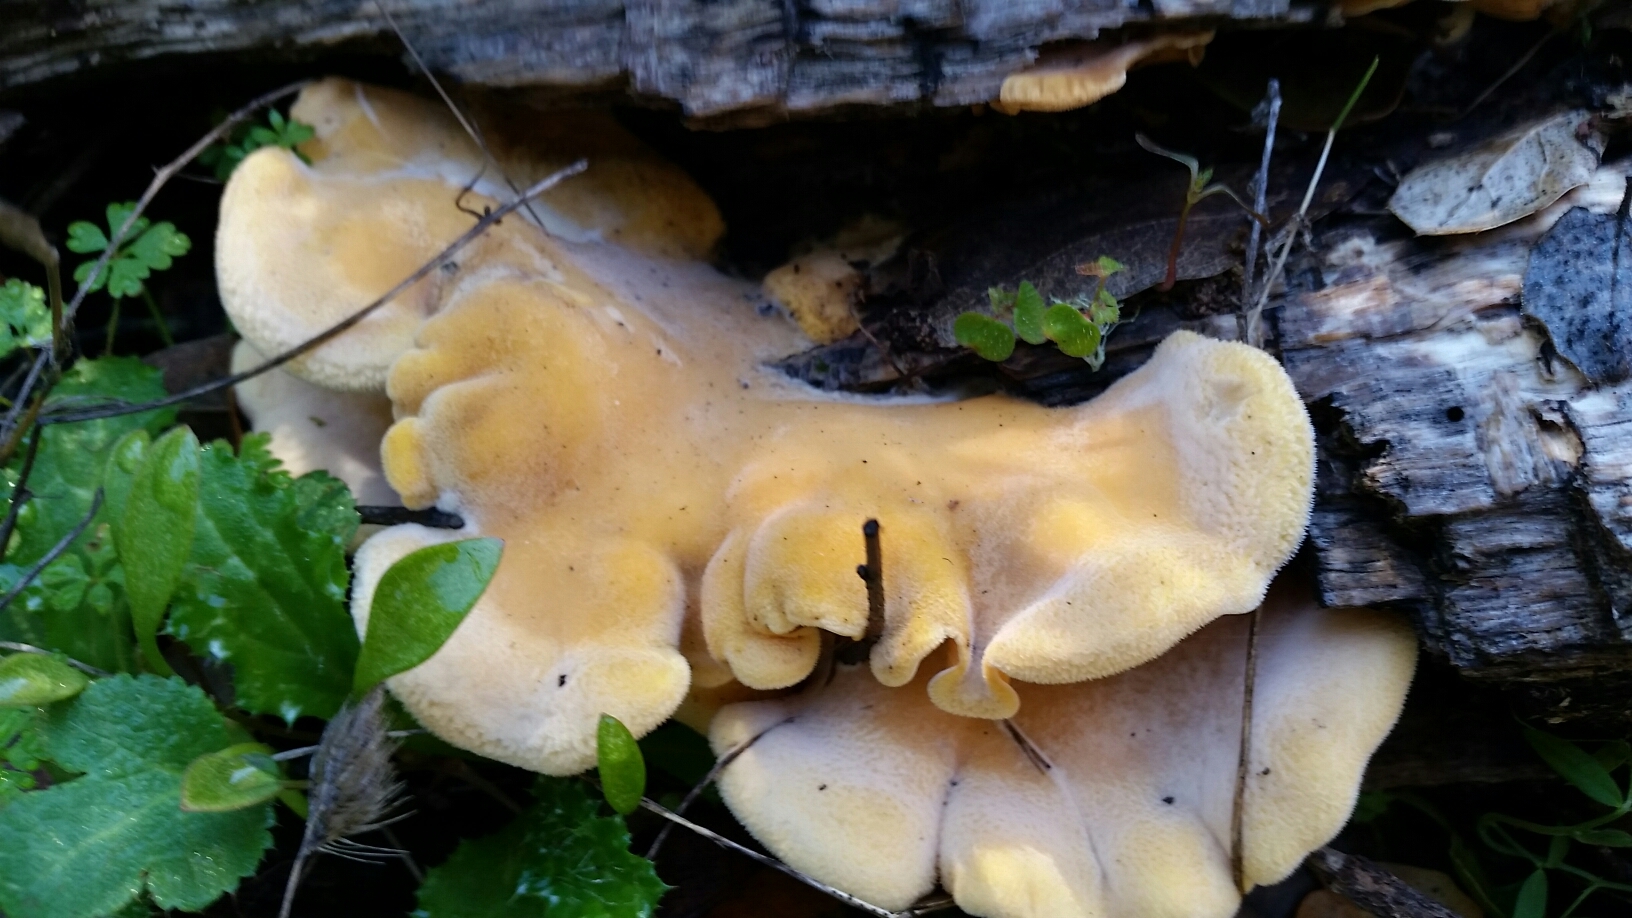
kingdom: Fungi
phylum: Basidiomycota
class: Agaricomycetes
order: Agaricales
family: Phyllotopsidaceae
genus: Phyllotopsis
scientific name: Phyllotopsis nidulans
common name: Orange mock oyster
